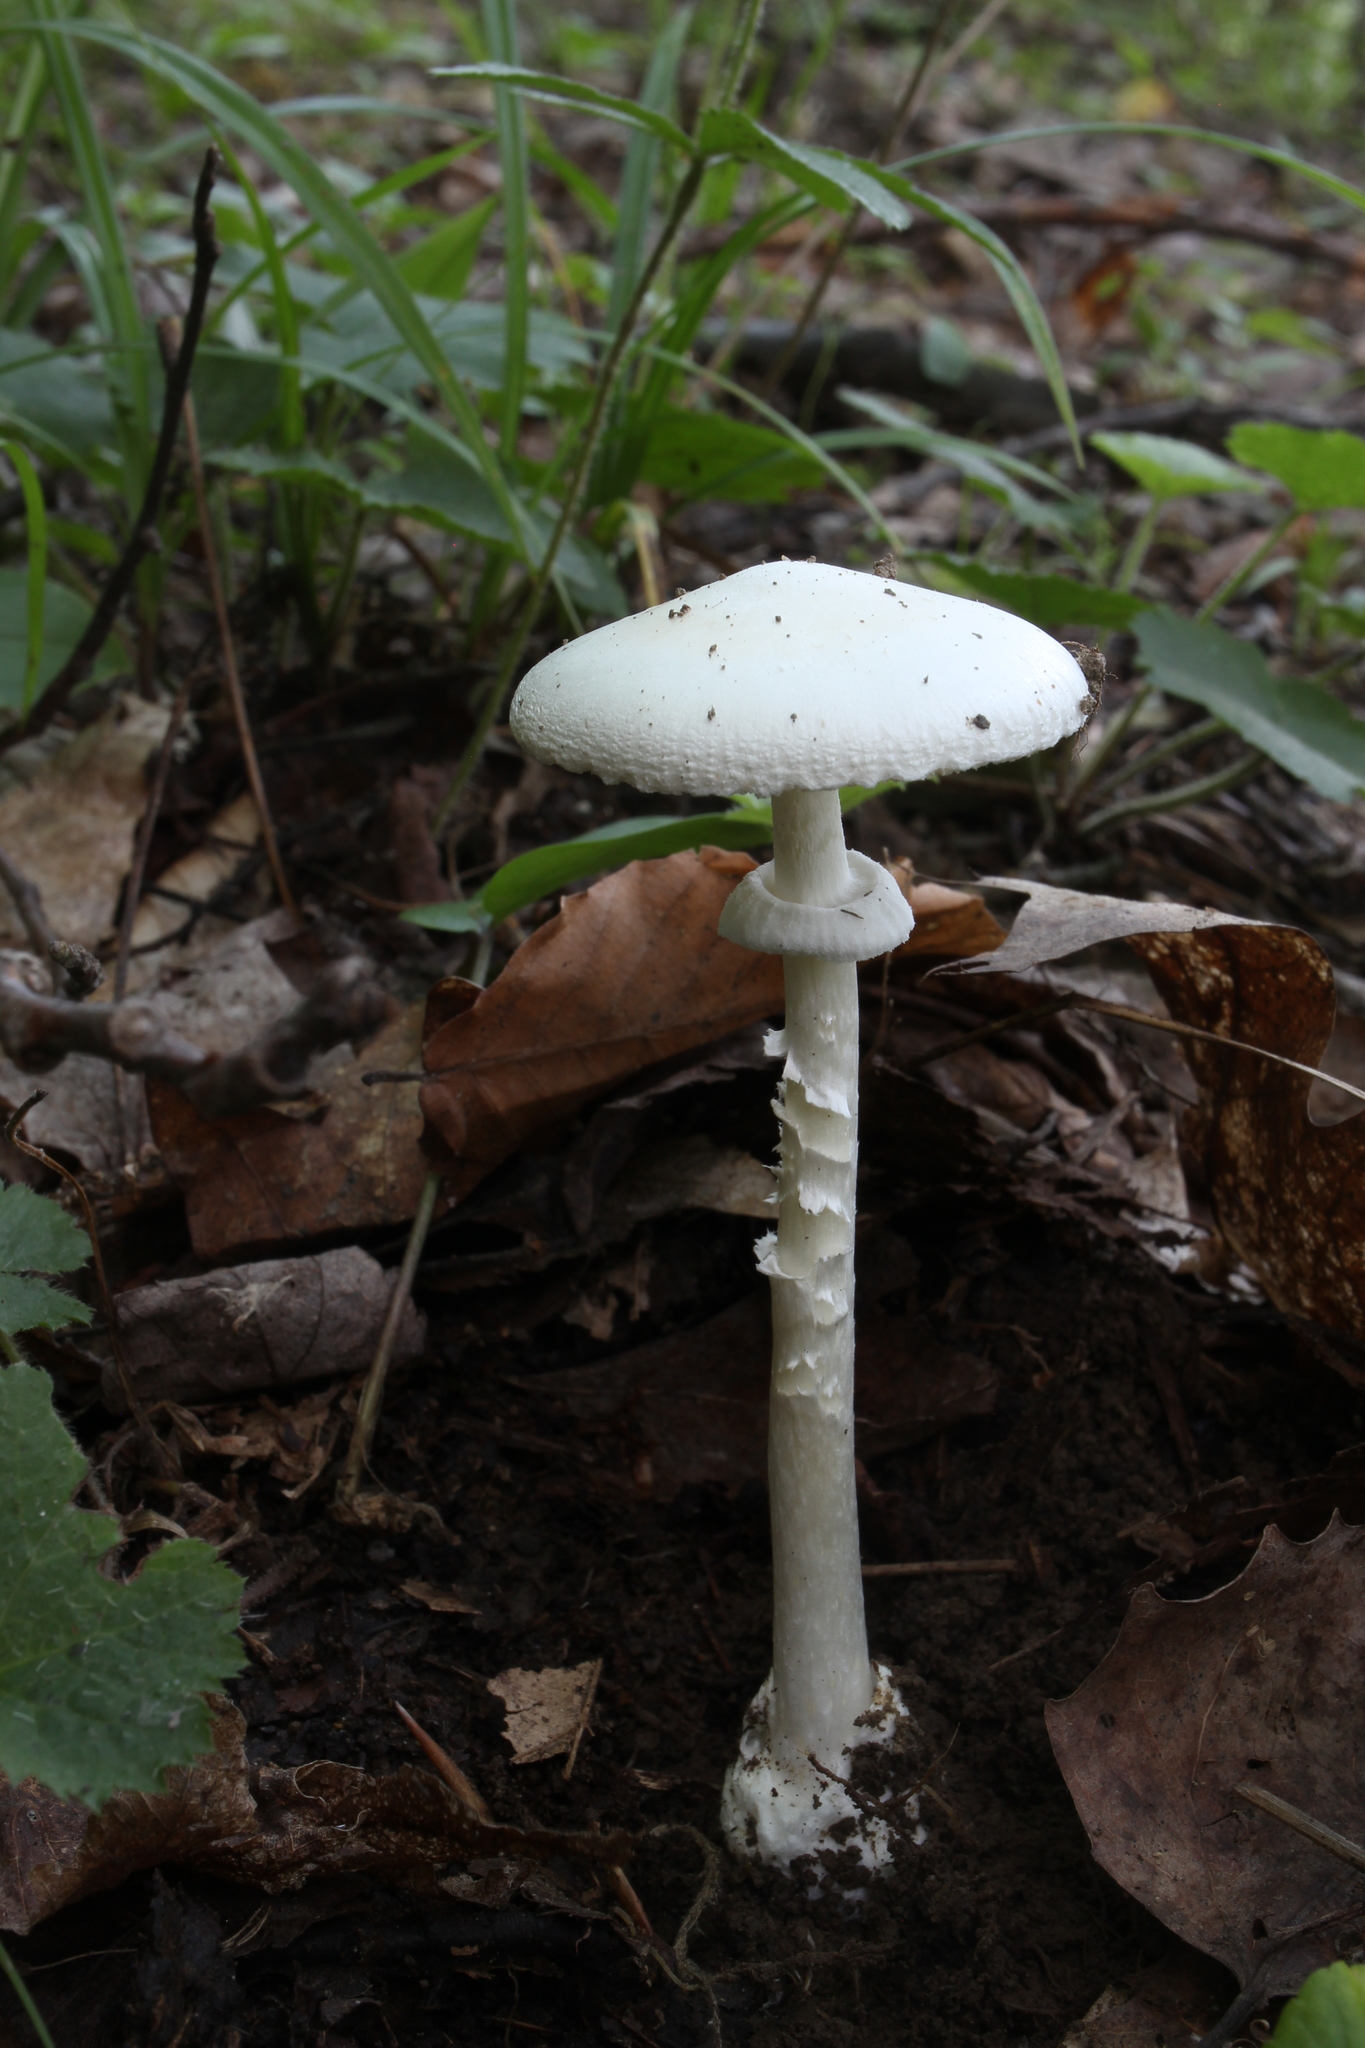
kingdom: Fungi
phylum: Basidiomycota
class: Agaricomycetes
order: Agaricales
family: Amanitaceae
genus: Amanita
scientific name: Amanita bisporigera
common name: Eastern north american destroying angel
